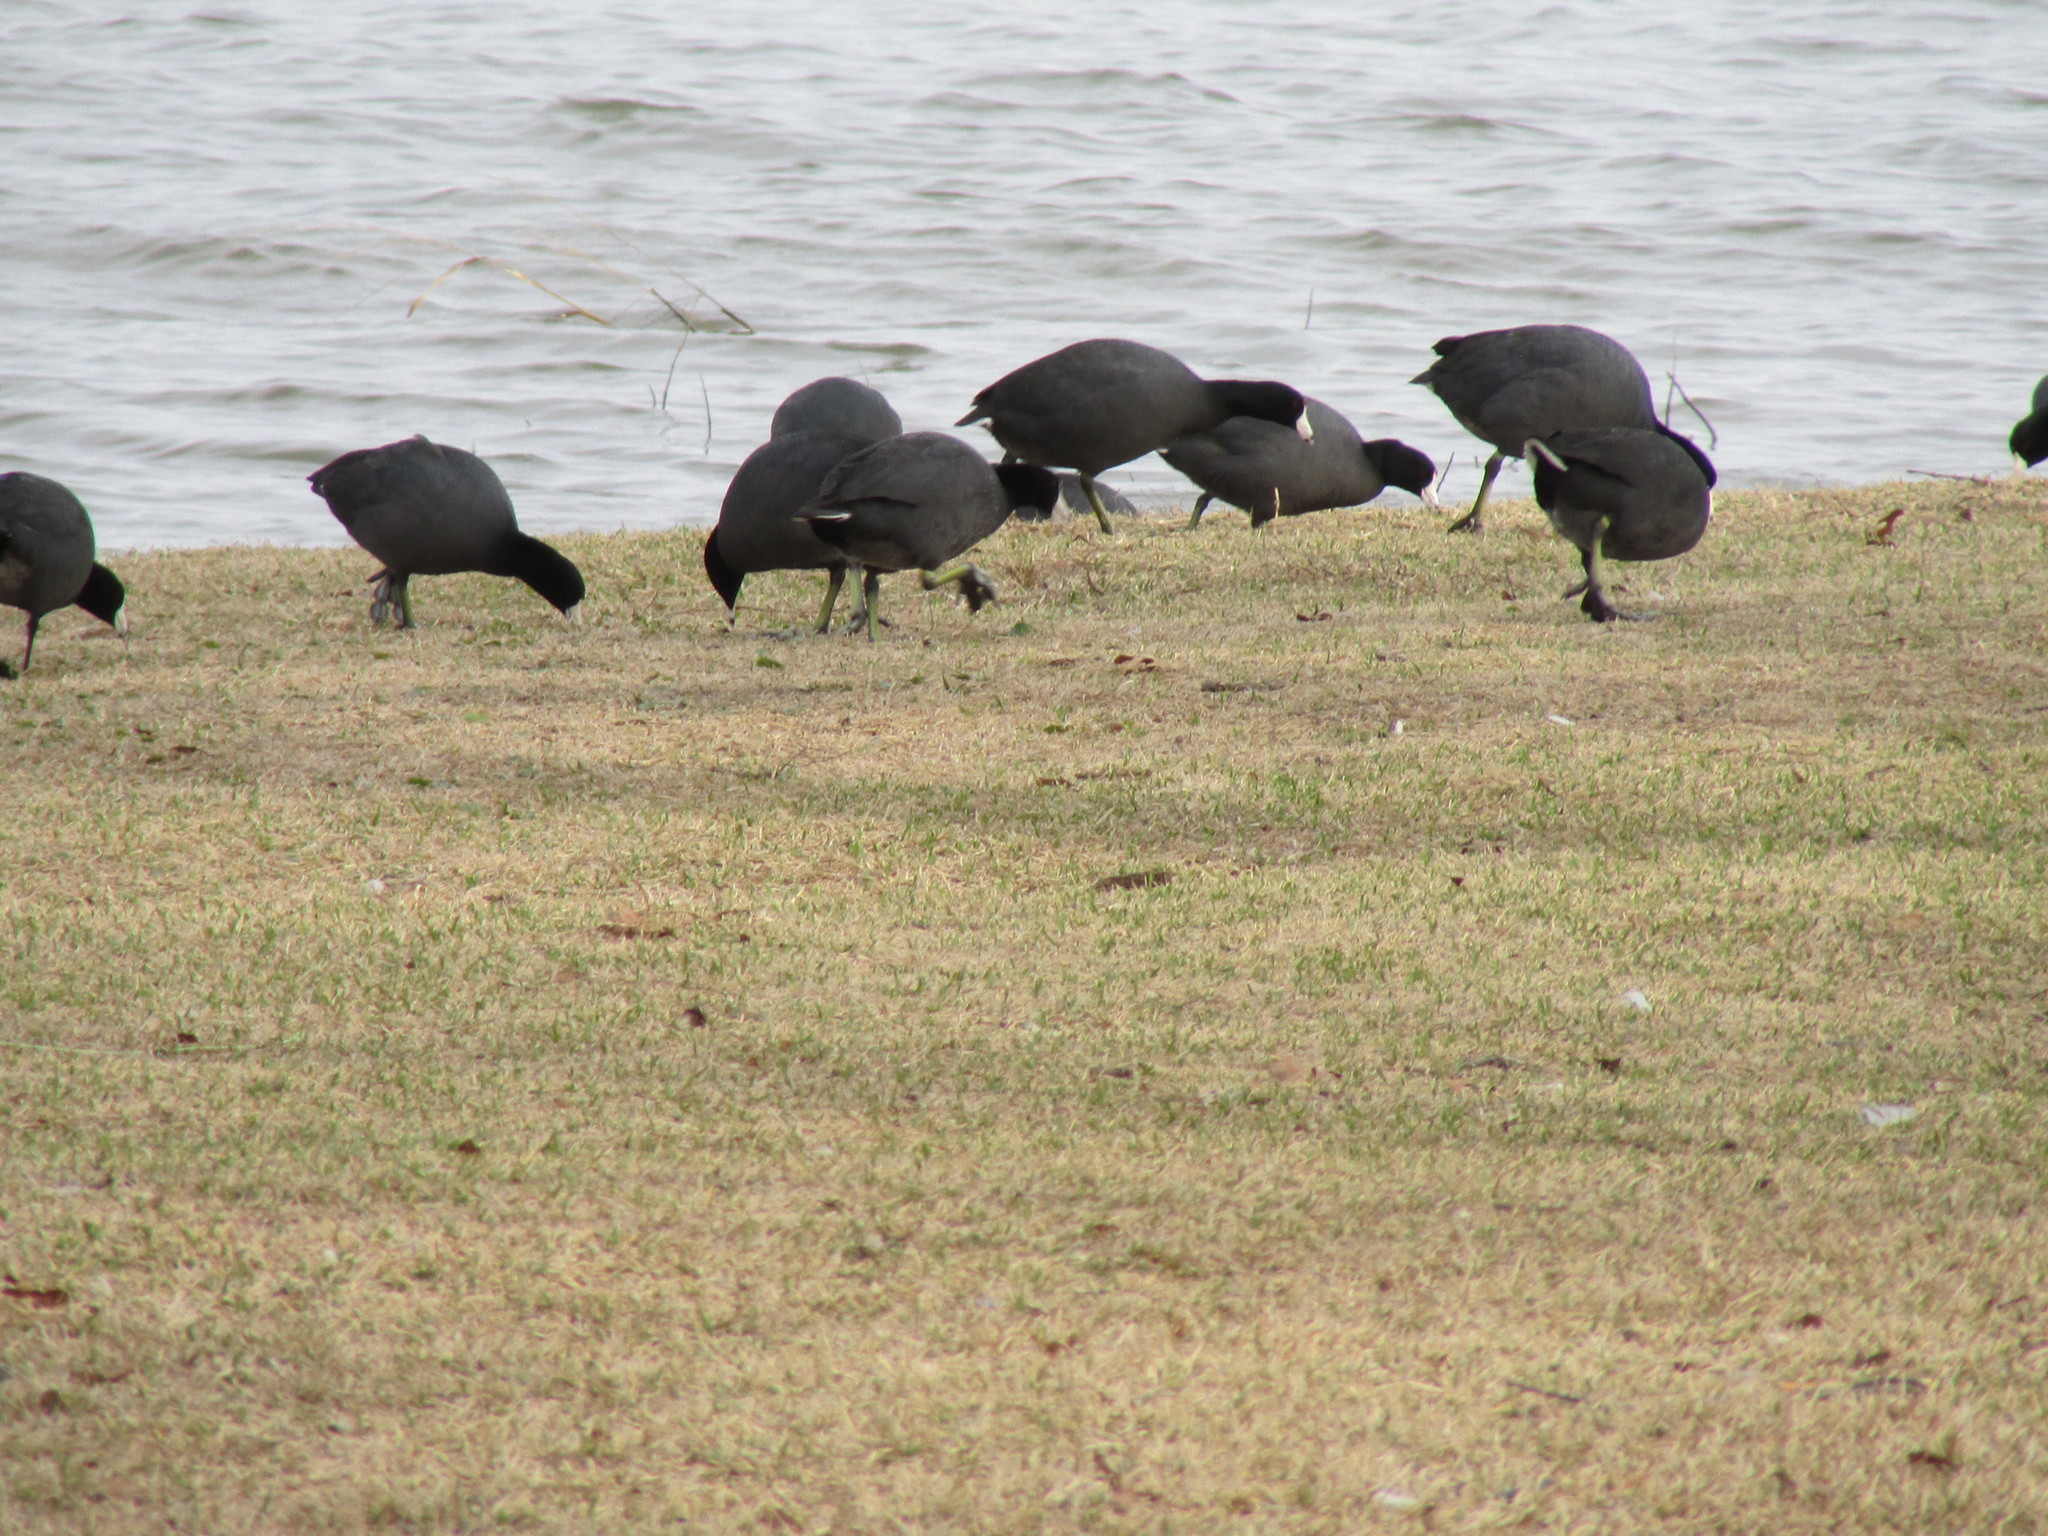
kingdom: Animalia
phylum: Chordata
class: Aves
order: Gruiformes
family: Rallidae
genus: Fulica
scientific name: Fulica americana
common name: American coot
